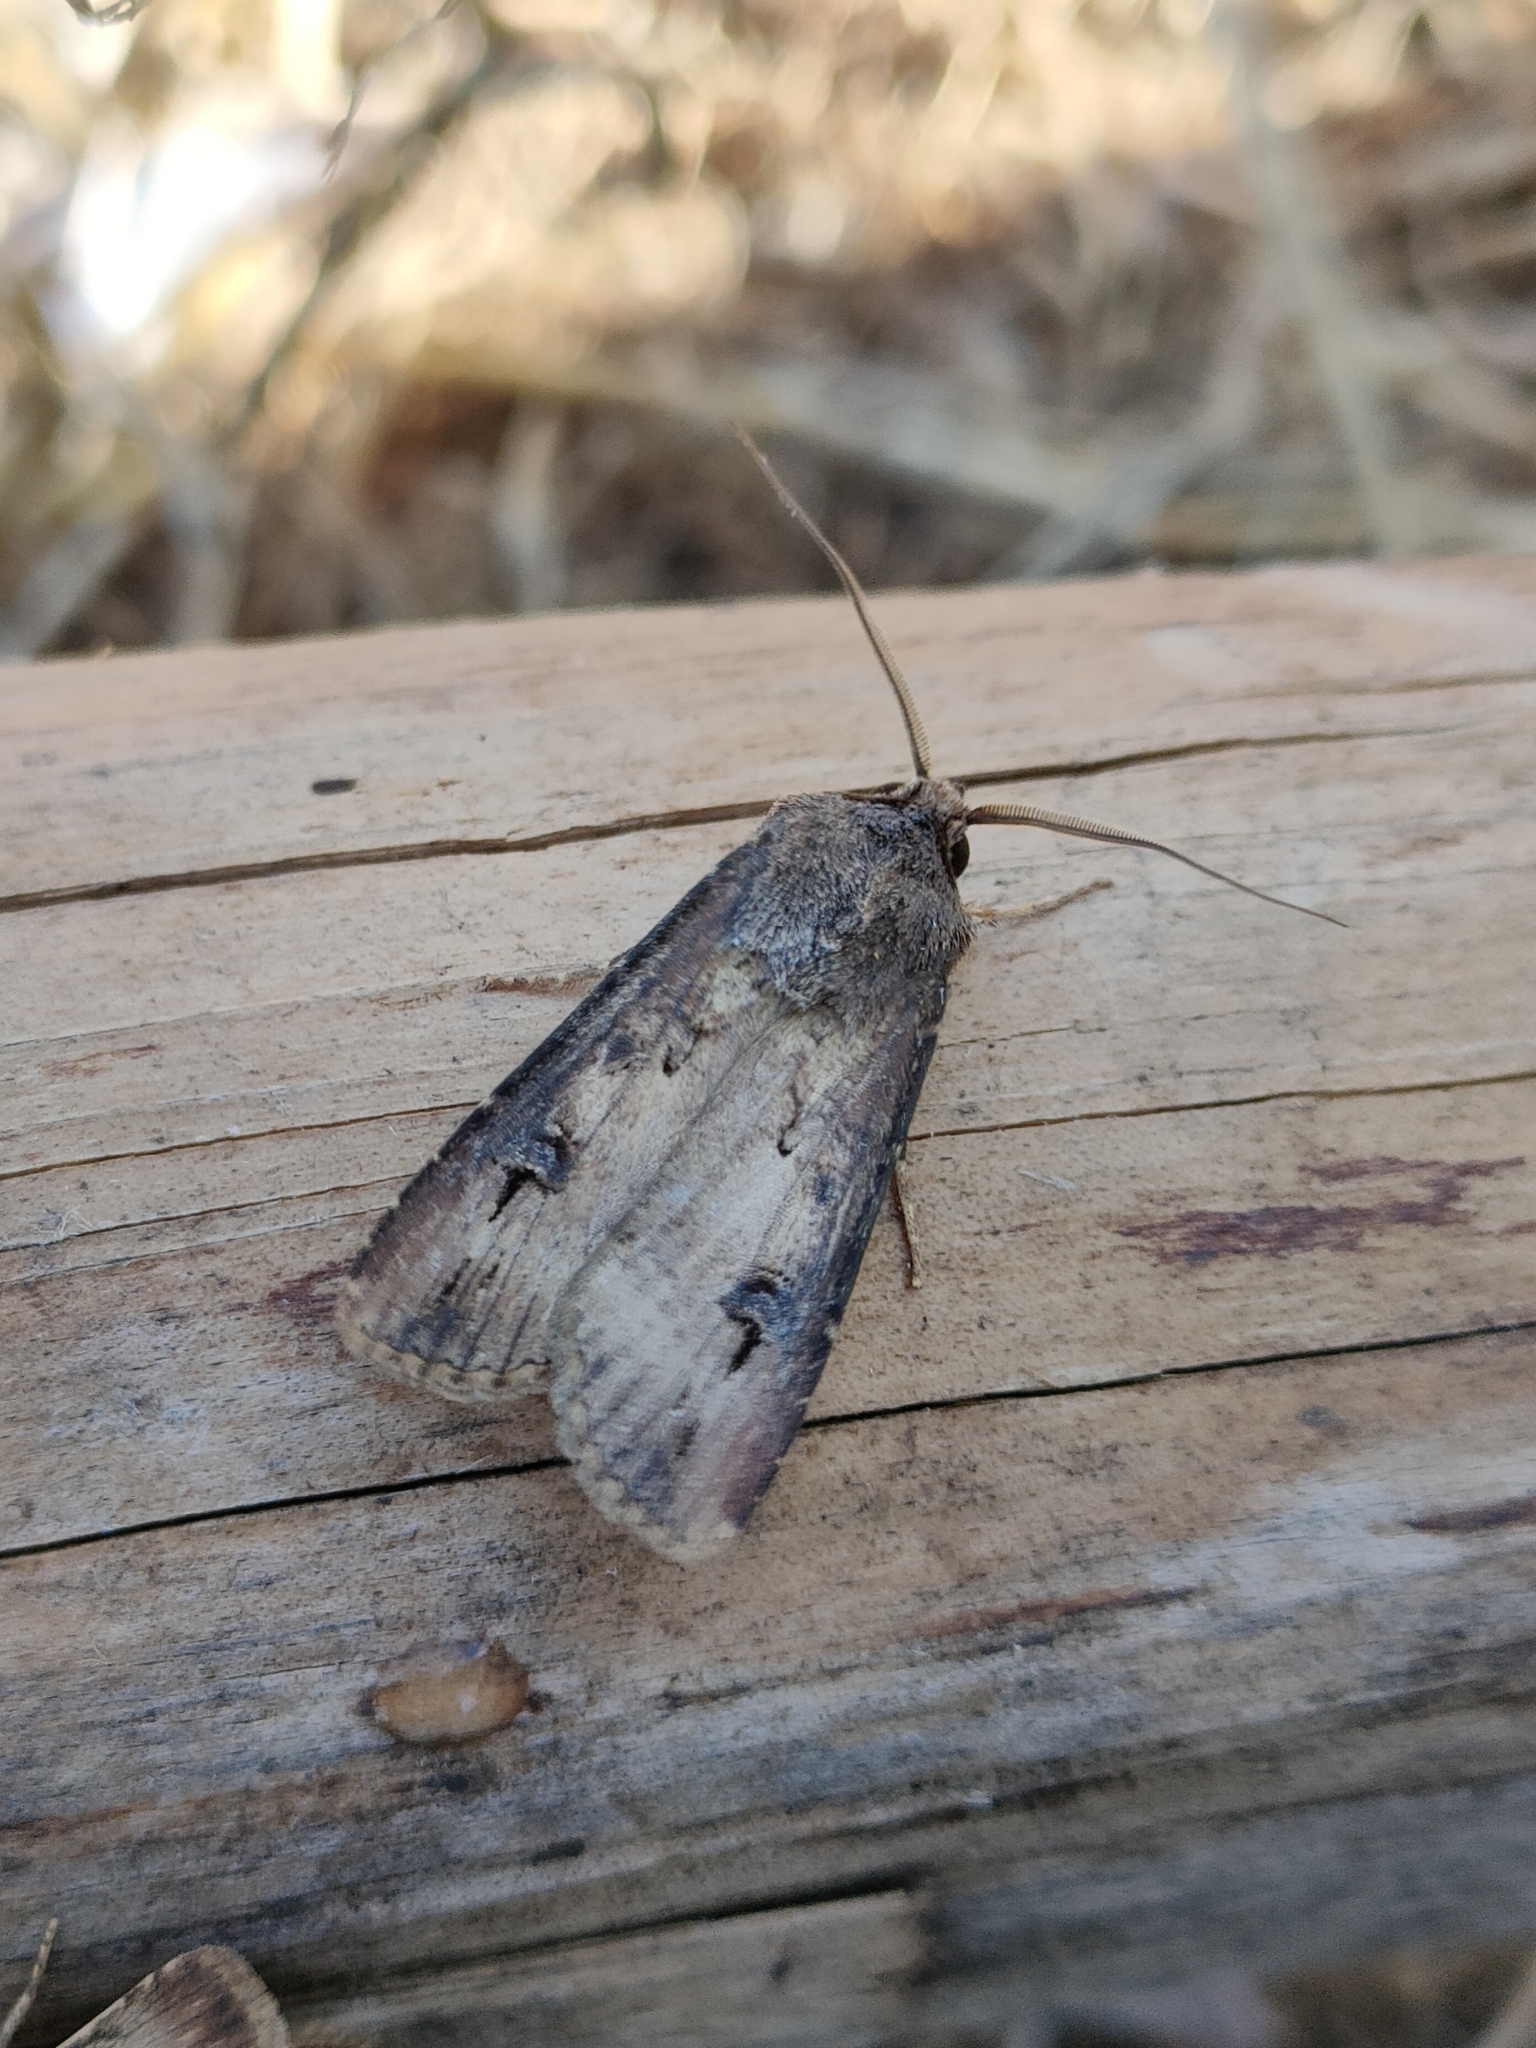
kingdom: Animalia
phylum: Arthropoda
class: Insecta
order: Lepidoptera
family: Noctuidae
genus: Agrotis
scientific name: Agrotis ipsilon
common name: Dark sword-grass
